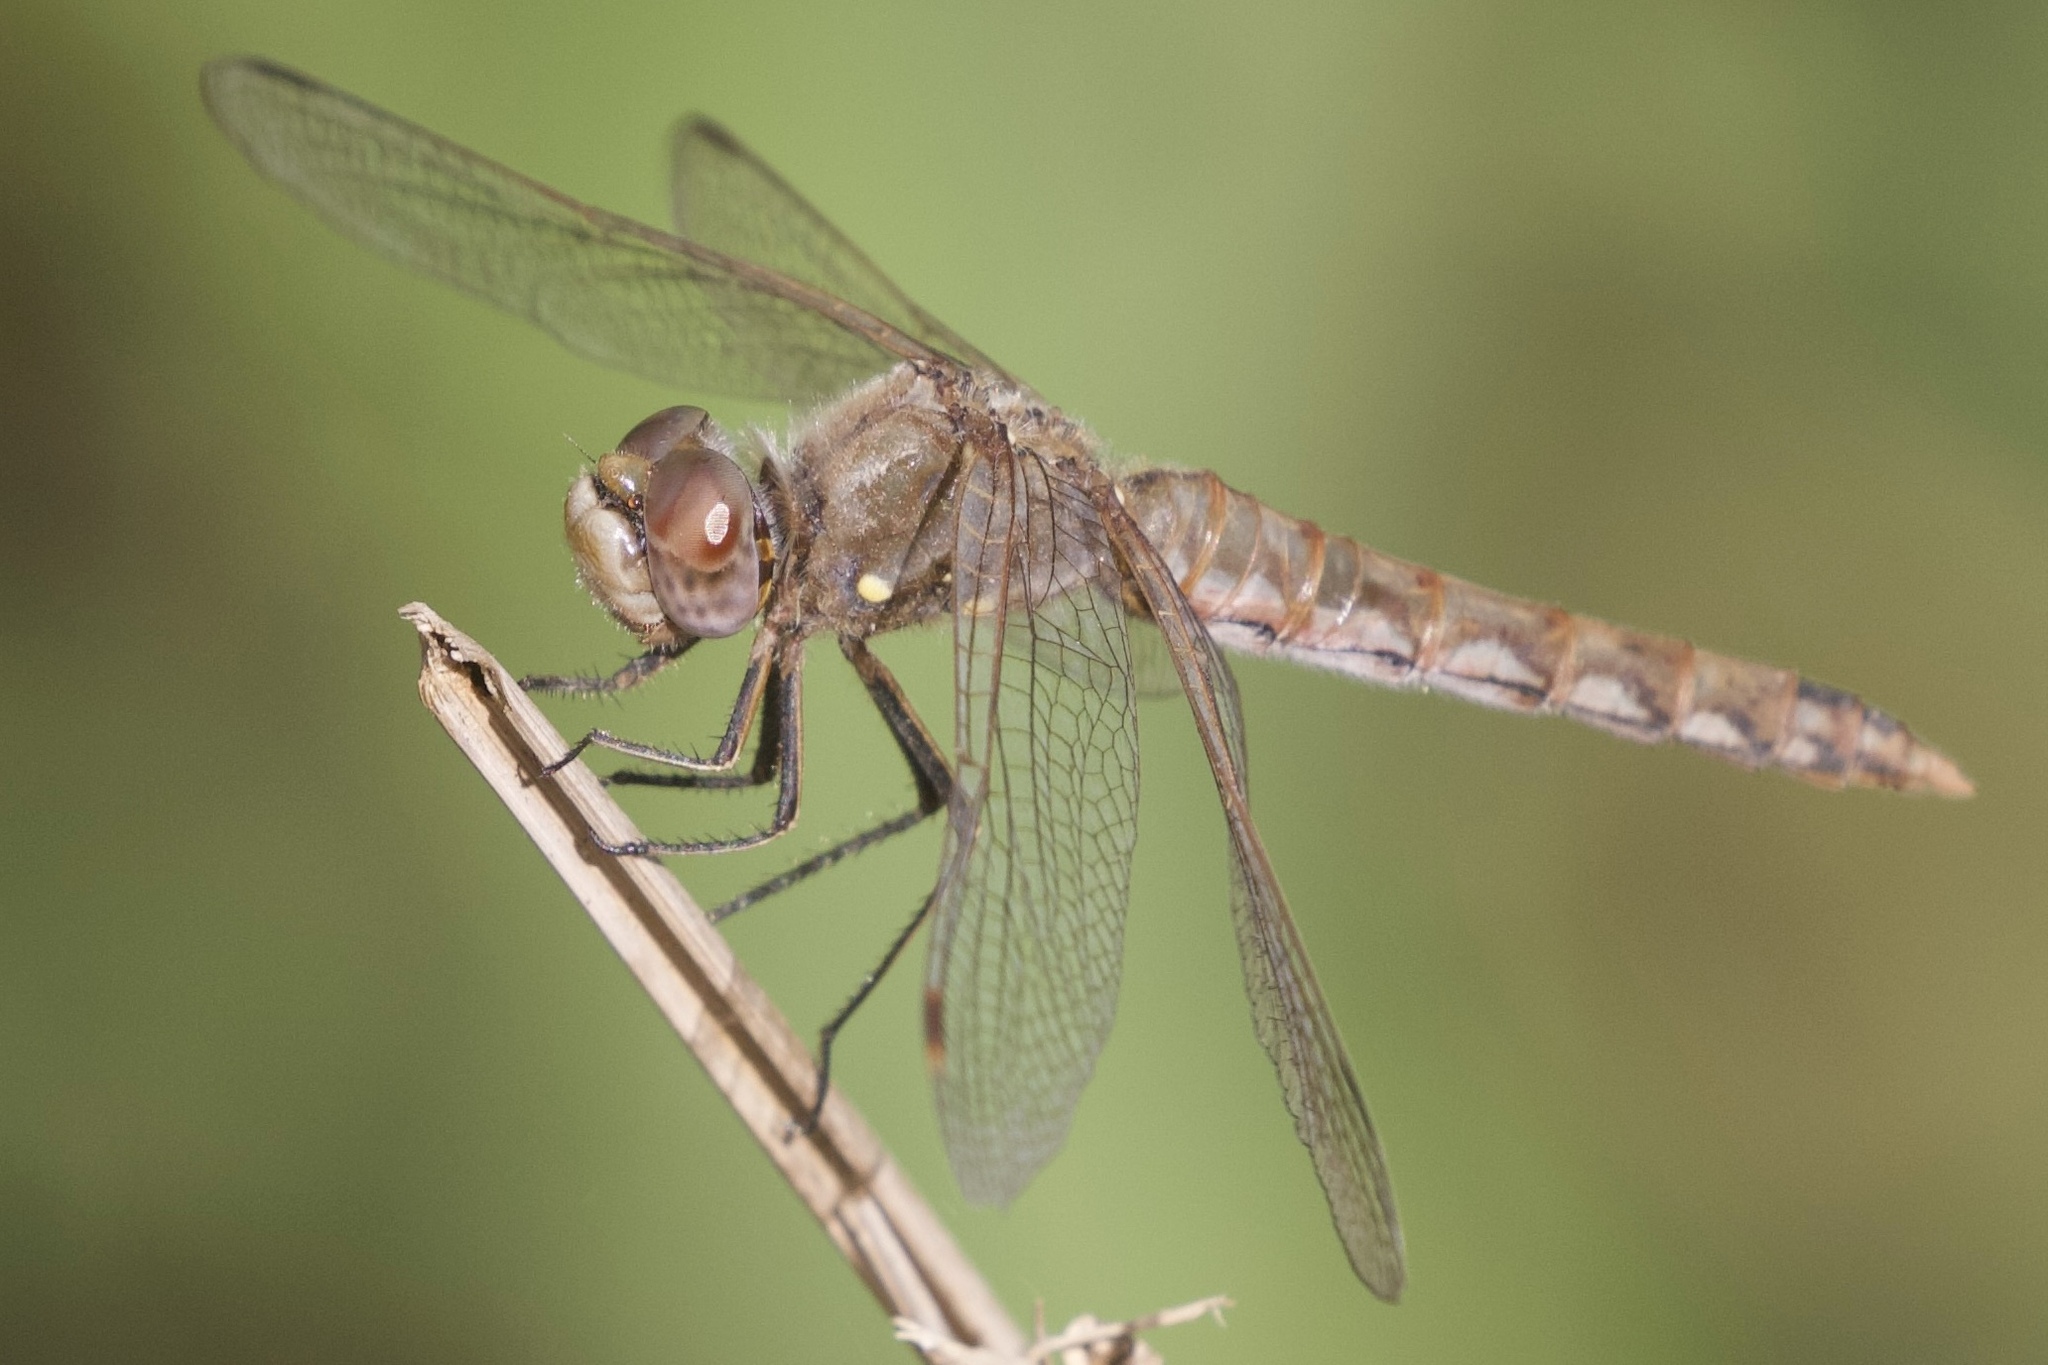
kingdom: Animalia
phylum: Arthropoda
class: Insecta
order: Odonata
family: Libellulidae
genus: Sympetrum
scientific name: Sympetrum corruptum
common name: Variegated meadowhawk
